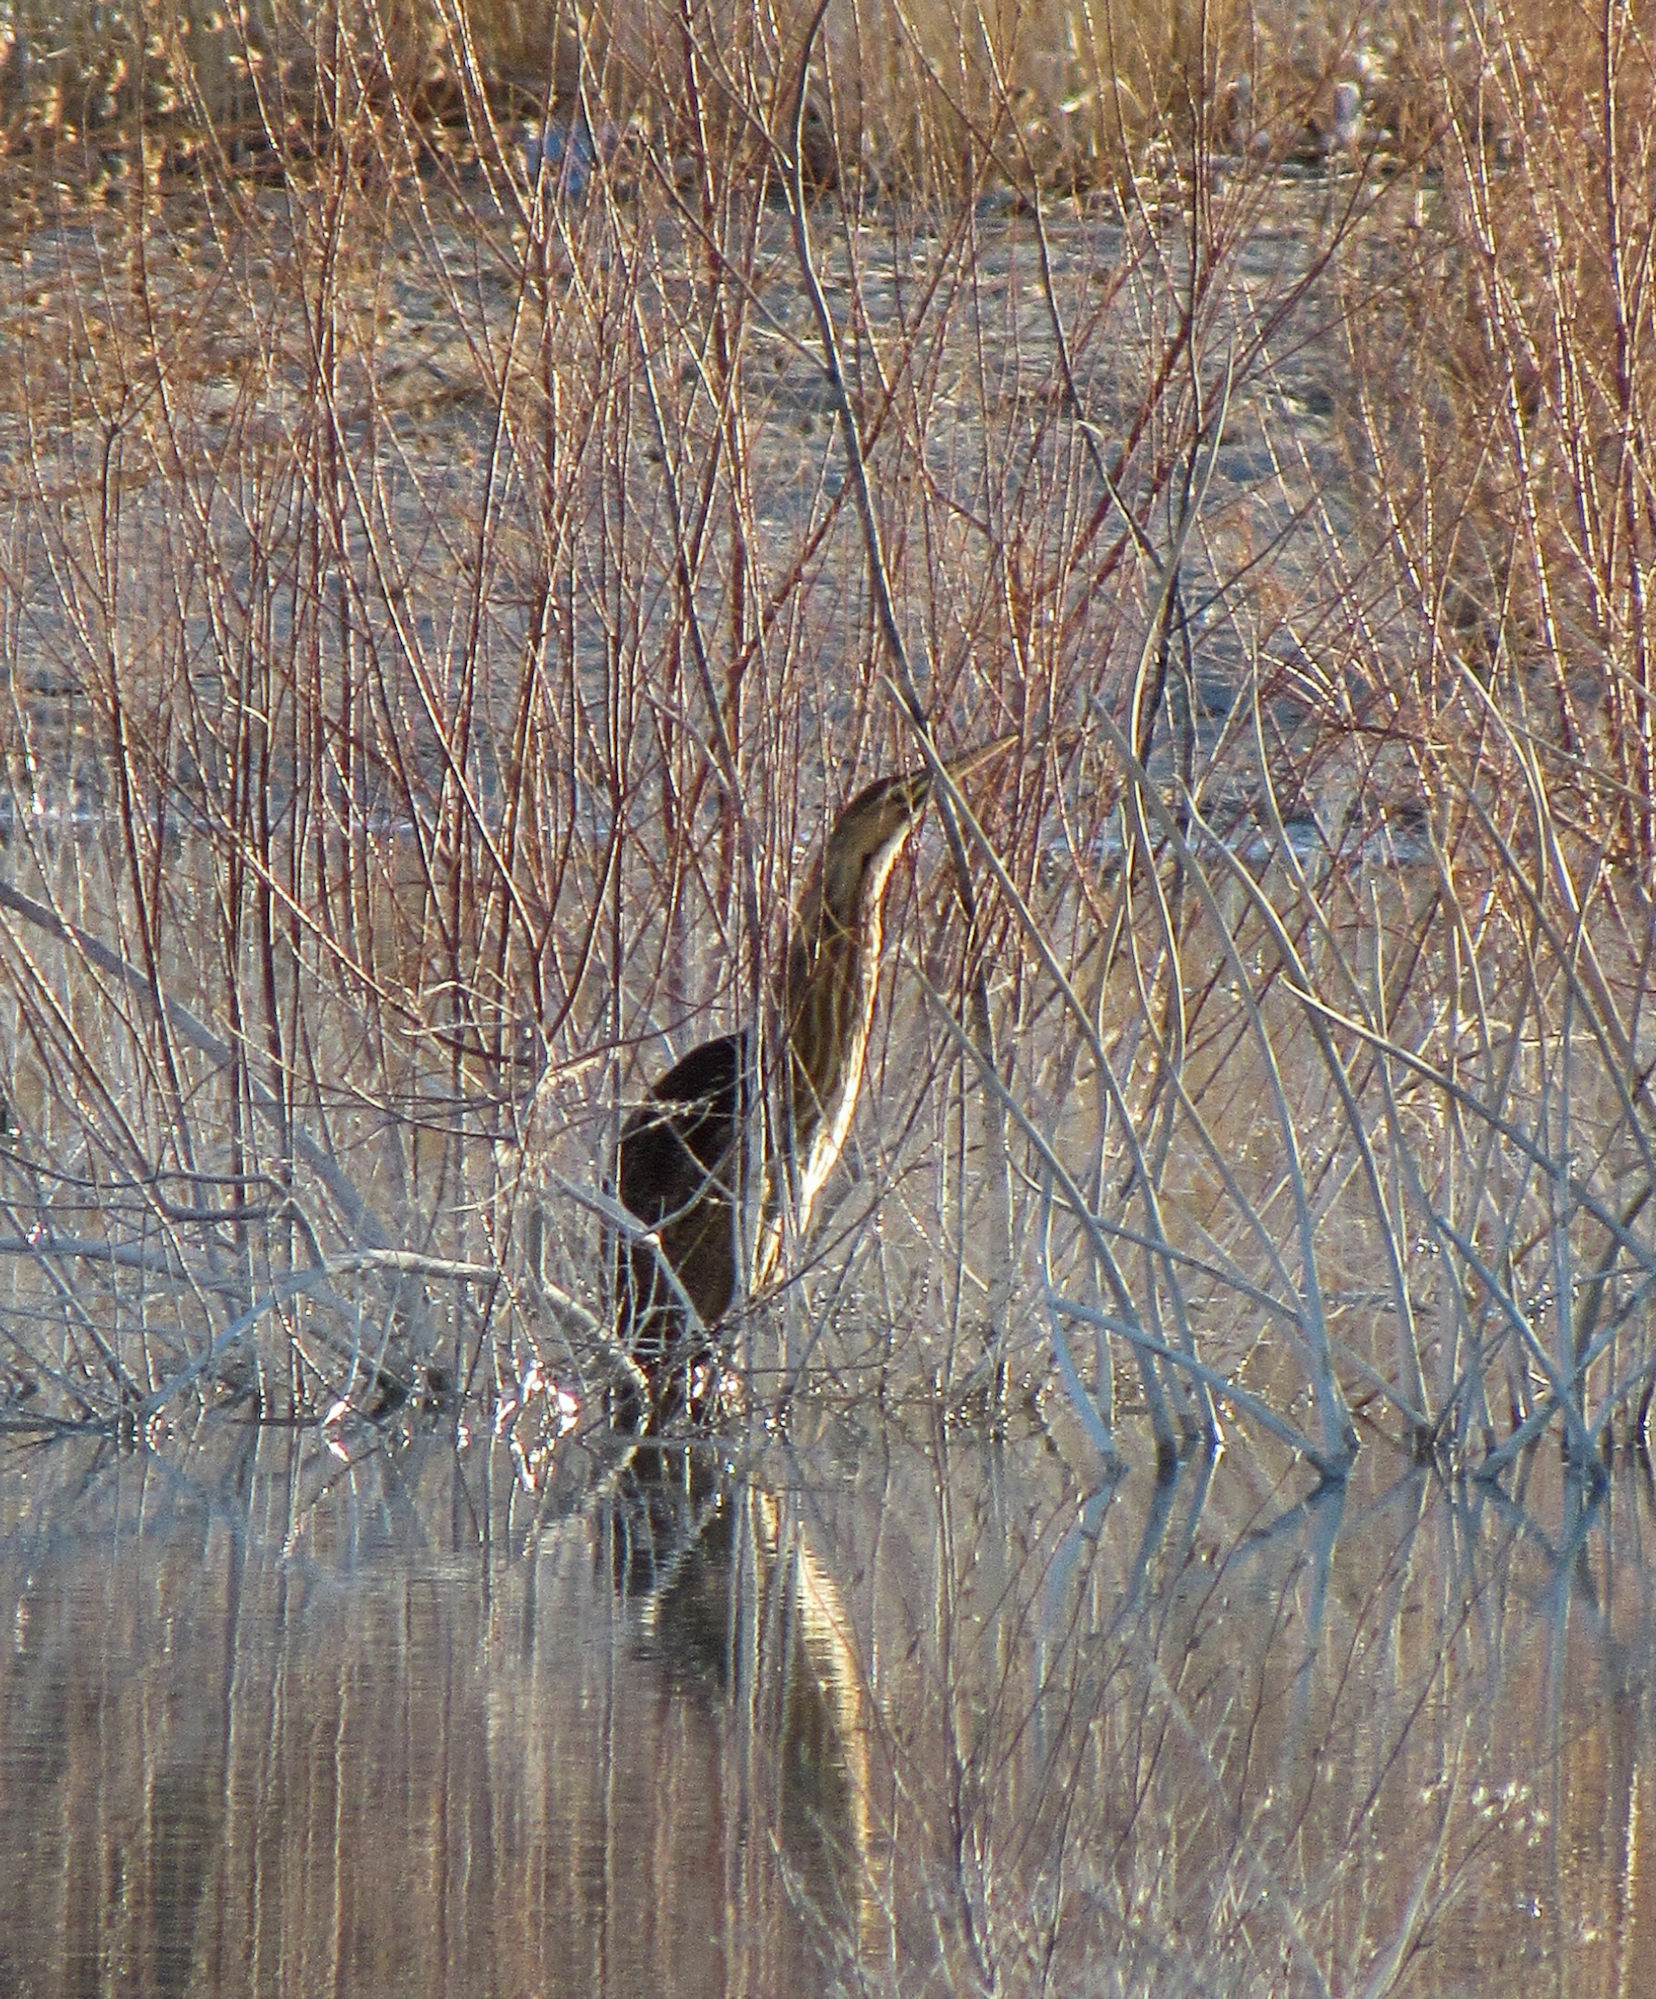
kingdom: Animalia
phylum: Chordata
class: Aves
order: Pelecaniformes
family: Ardeidae
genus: Botaurus
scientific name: Botaurus lentiginosus
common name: American bittern
